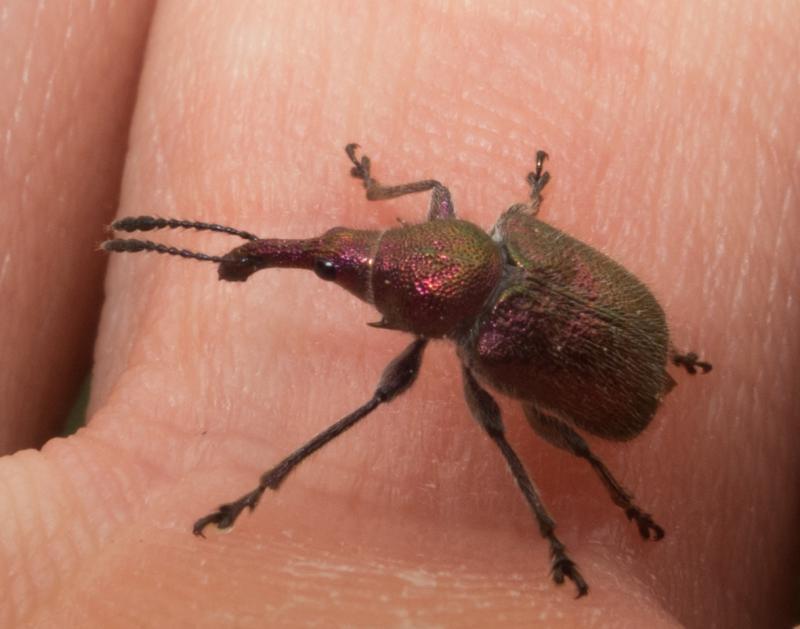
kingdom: Animalia
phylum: Arthropoda
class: Insecta
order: Coleoptera
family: Attelabidae
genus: Rhynchites
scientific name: Rhynchites auratus
